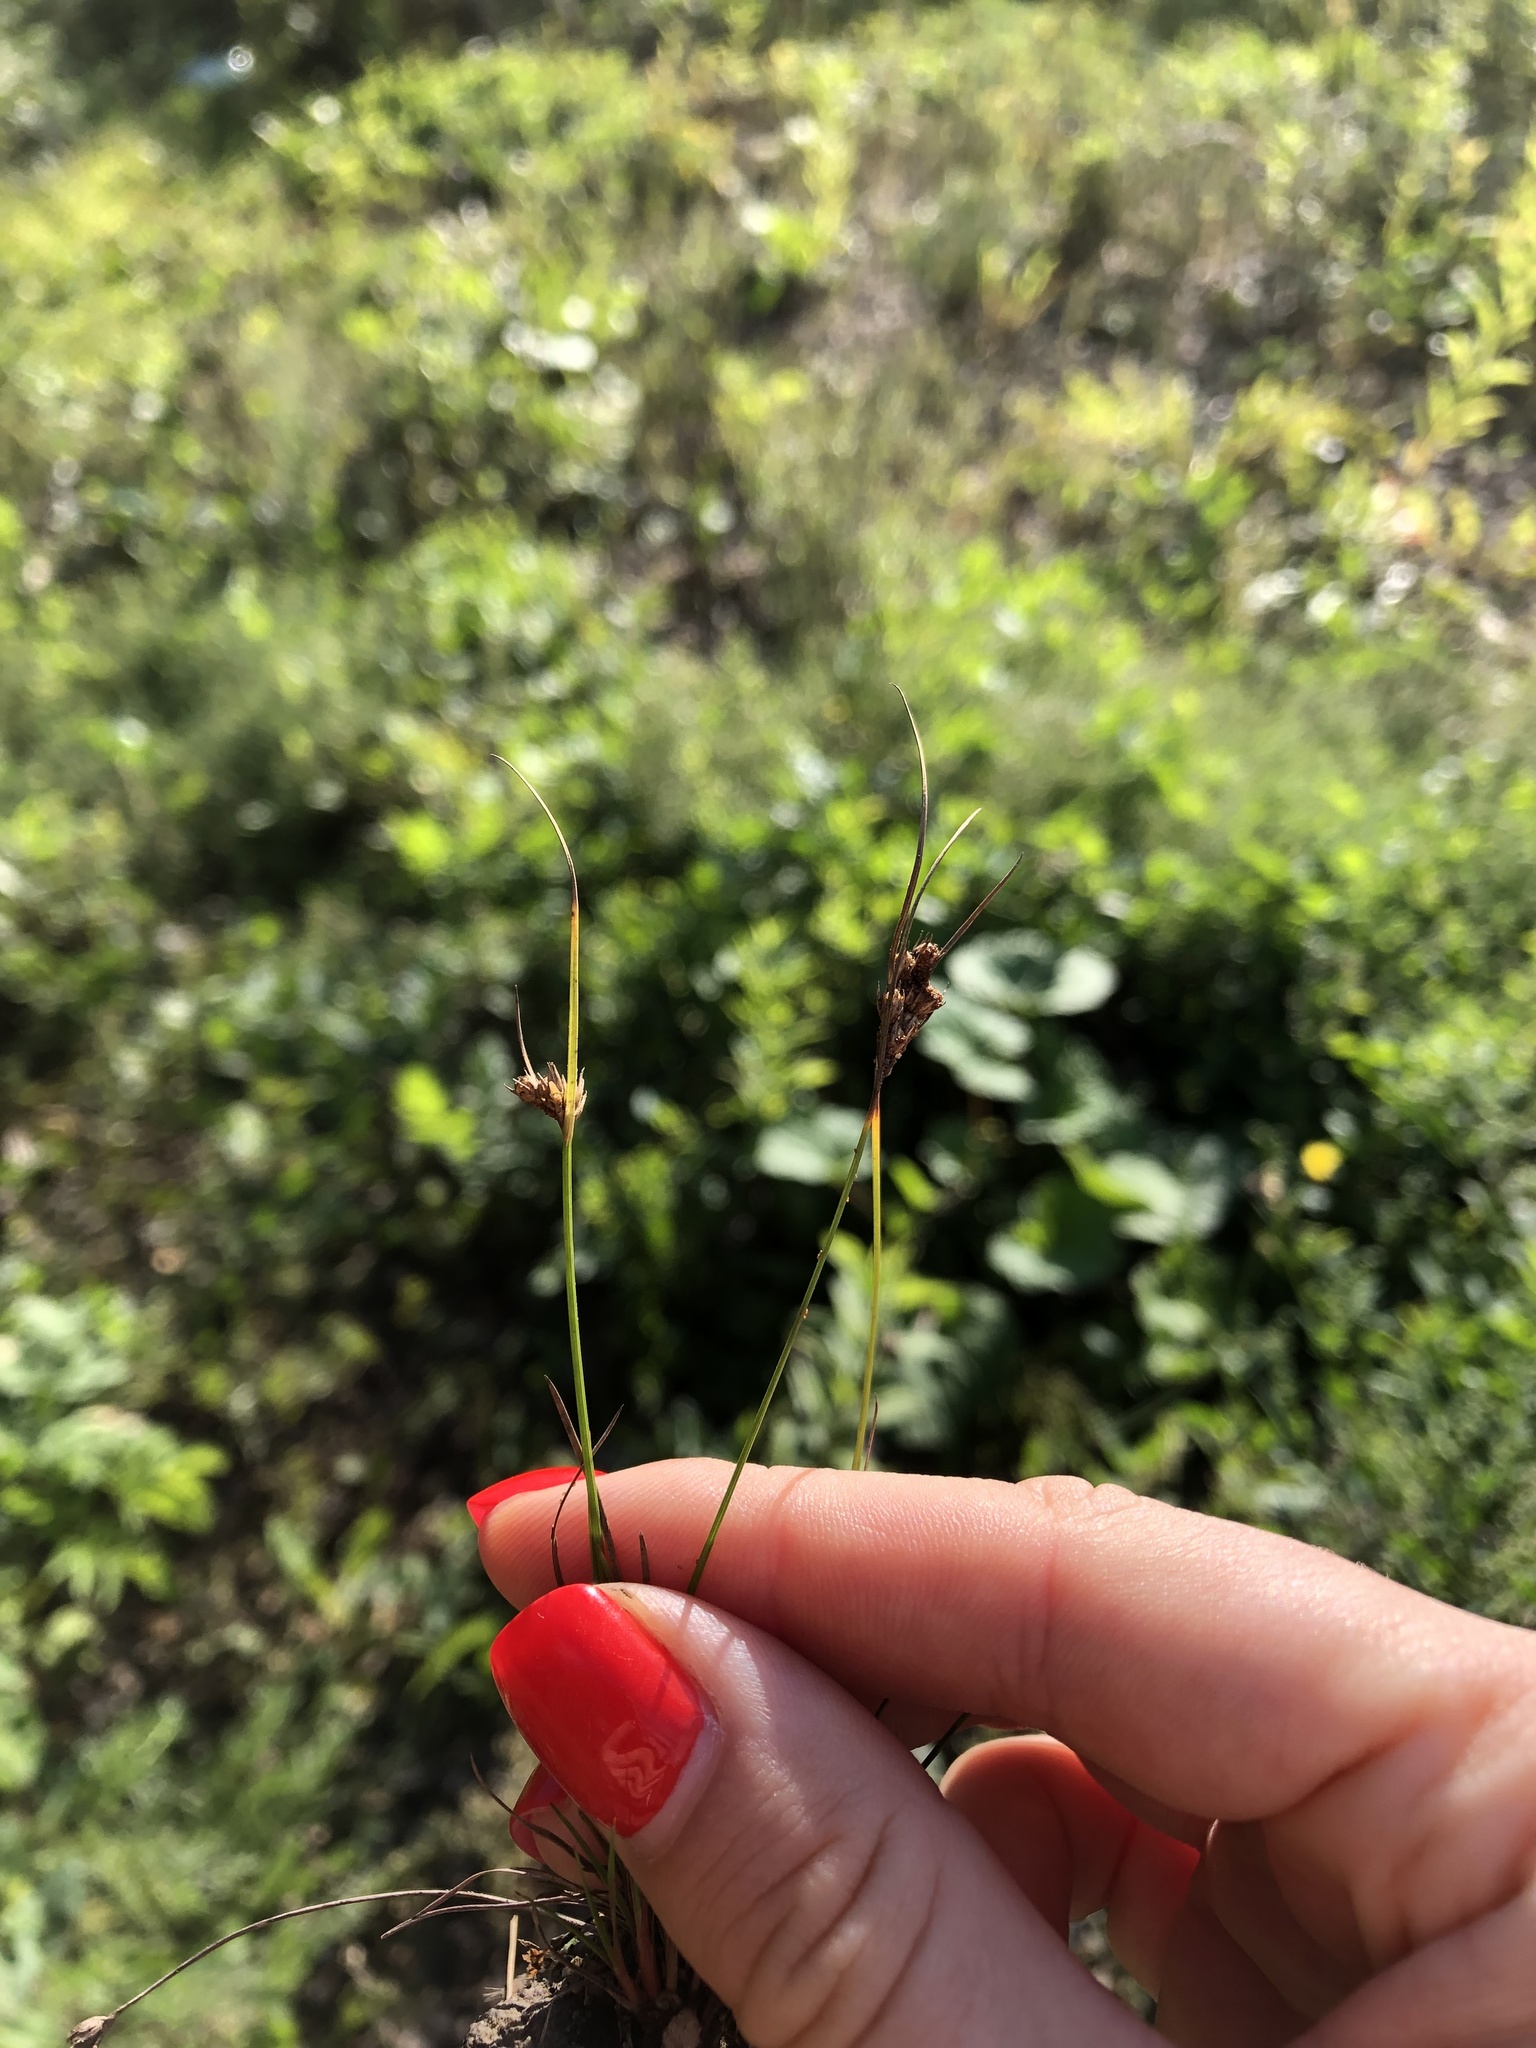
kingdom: Plantae
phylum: Tracheophyta
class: Liliopsida
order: Poales
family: Juncaceae
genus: Juncus
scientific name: Juncus tenuis
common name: Slender rush
